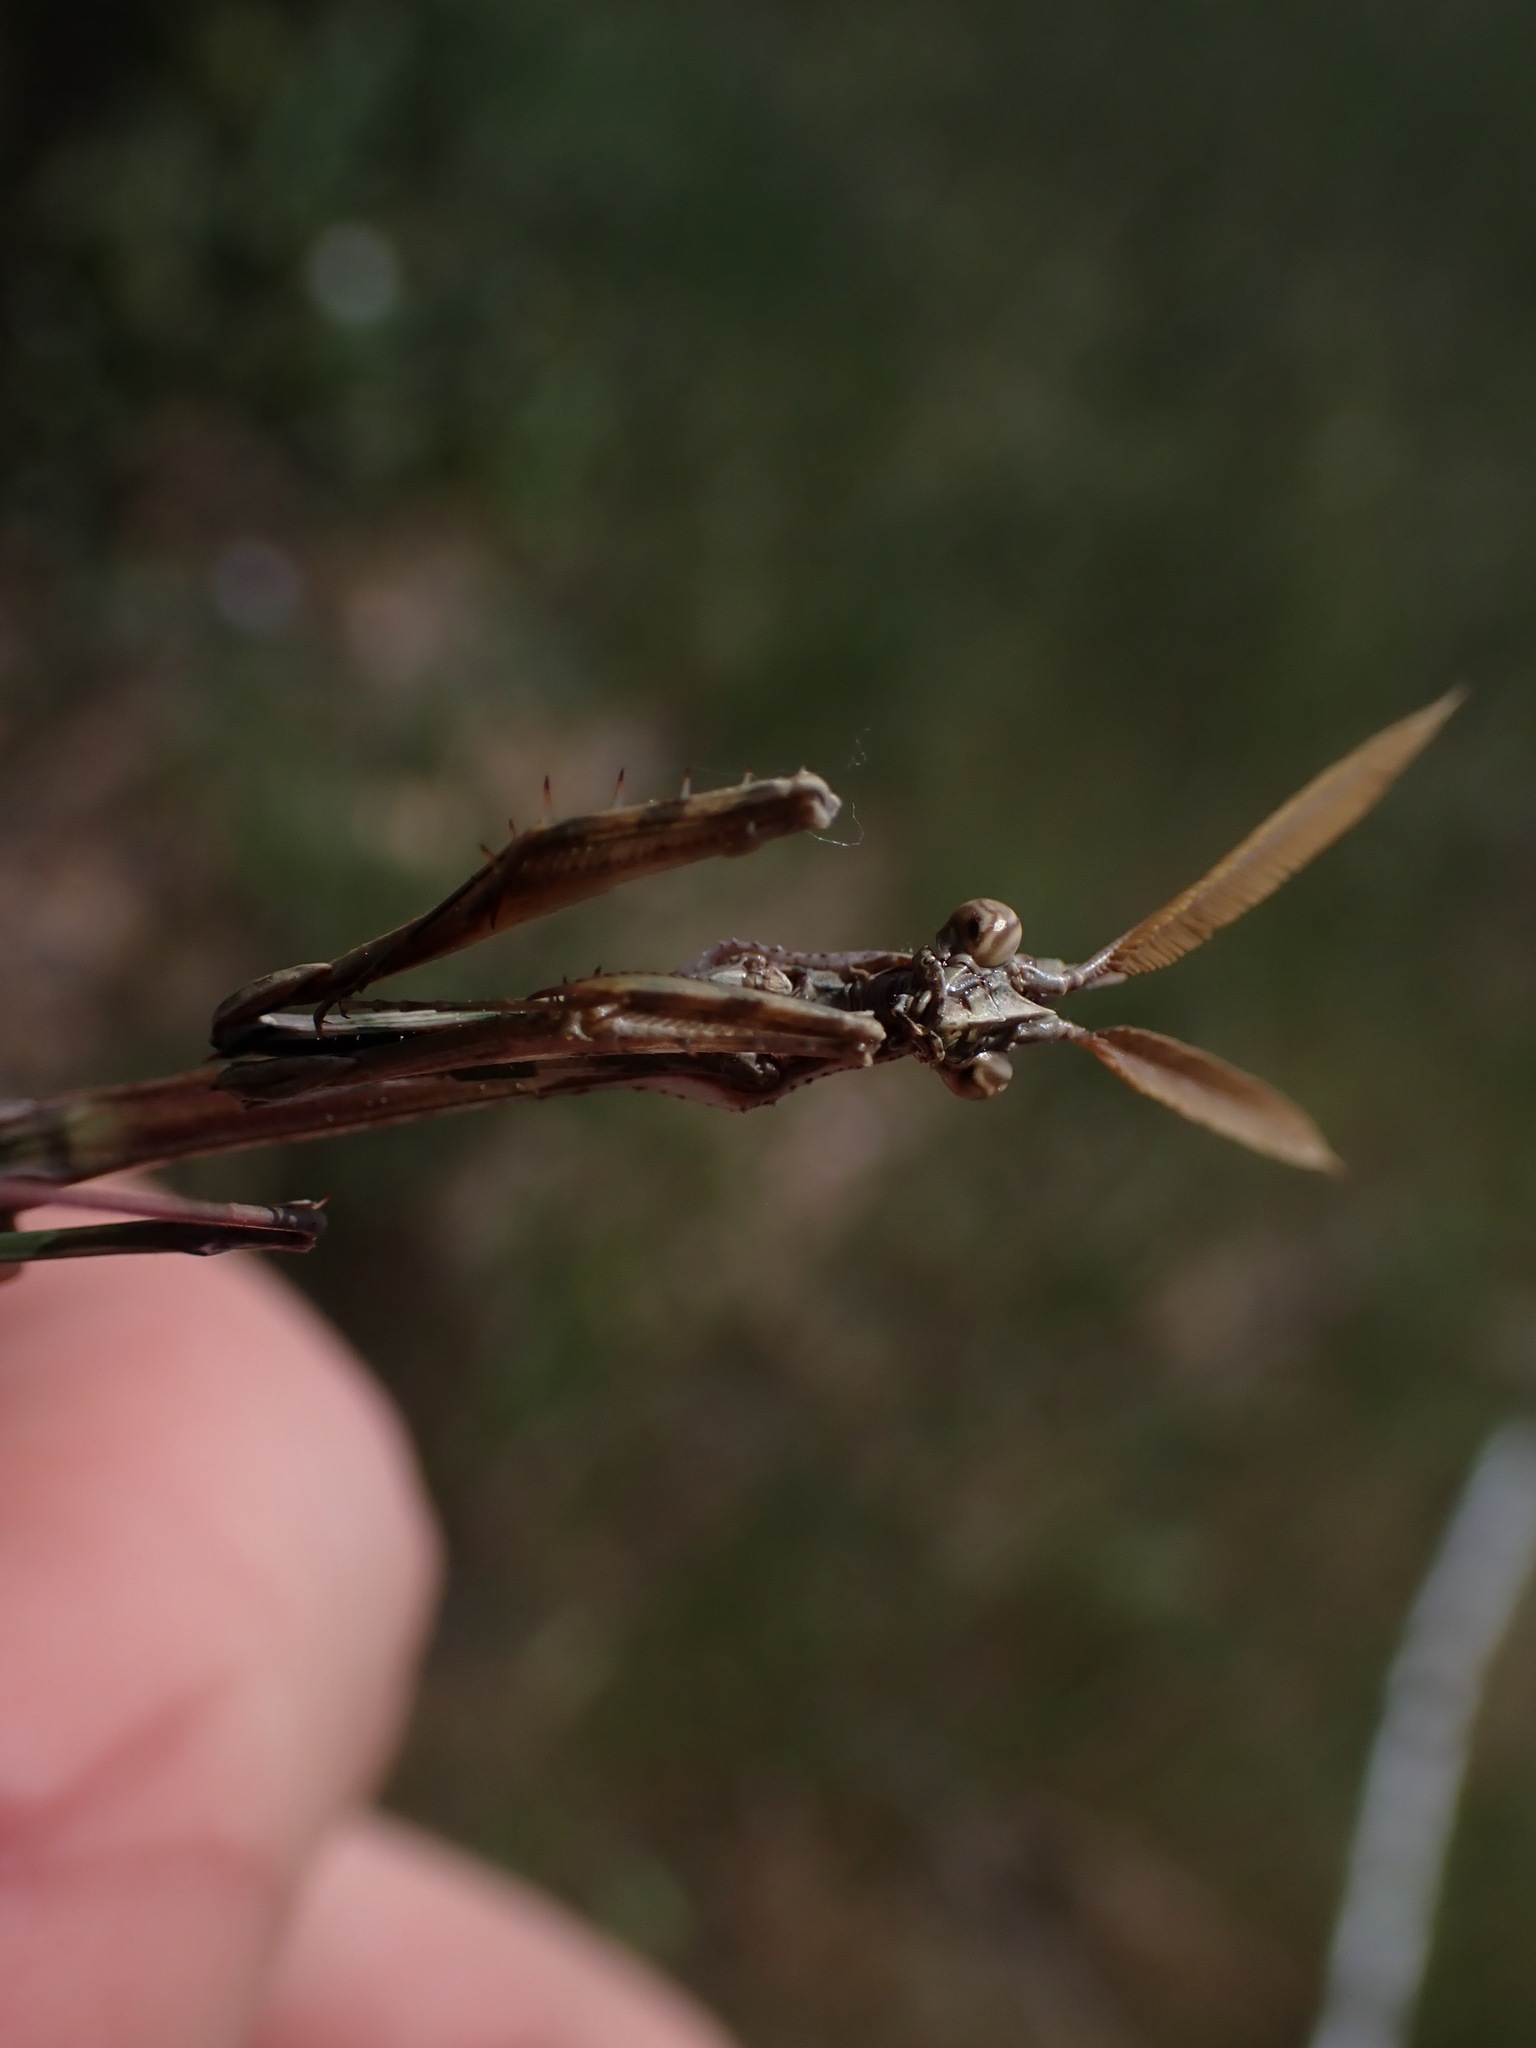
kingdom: Animalia
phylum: Arthropoda
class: Insecta
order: Mantodea
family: Empusidae
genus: Empusa
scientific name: Empusa pennata
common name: Conehead mantis
